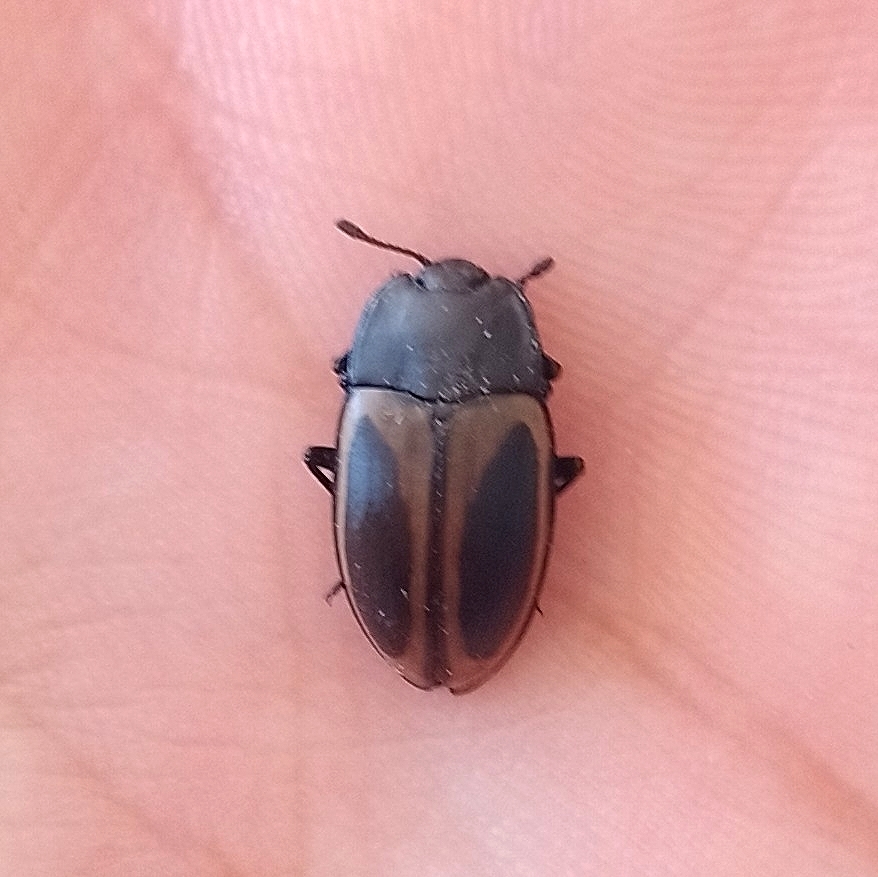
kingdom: Animalia
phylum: Arthropoda
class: Insecta
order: Coleoptera
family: Erotylidae
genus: Iphiclus
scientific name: Iphiclus
